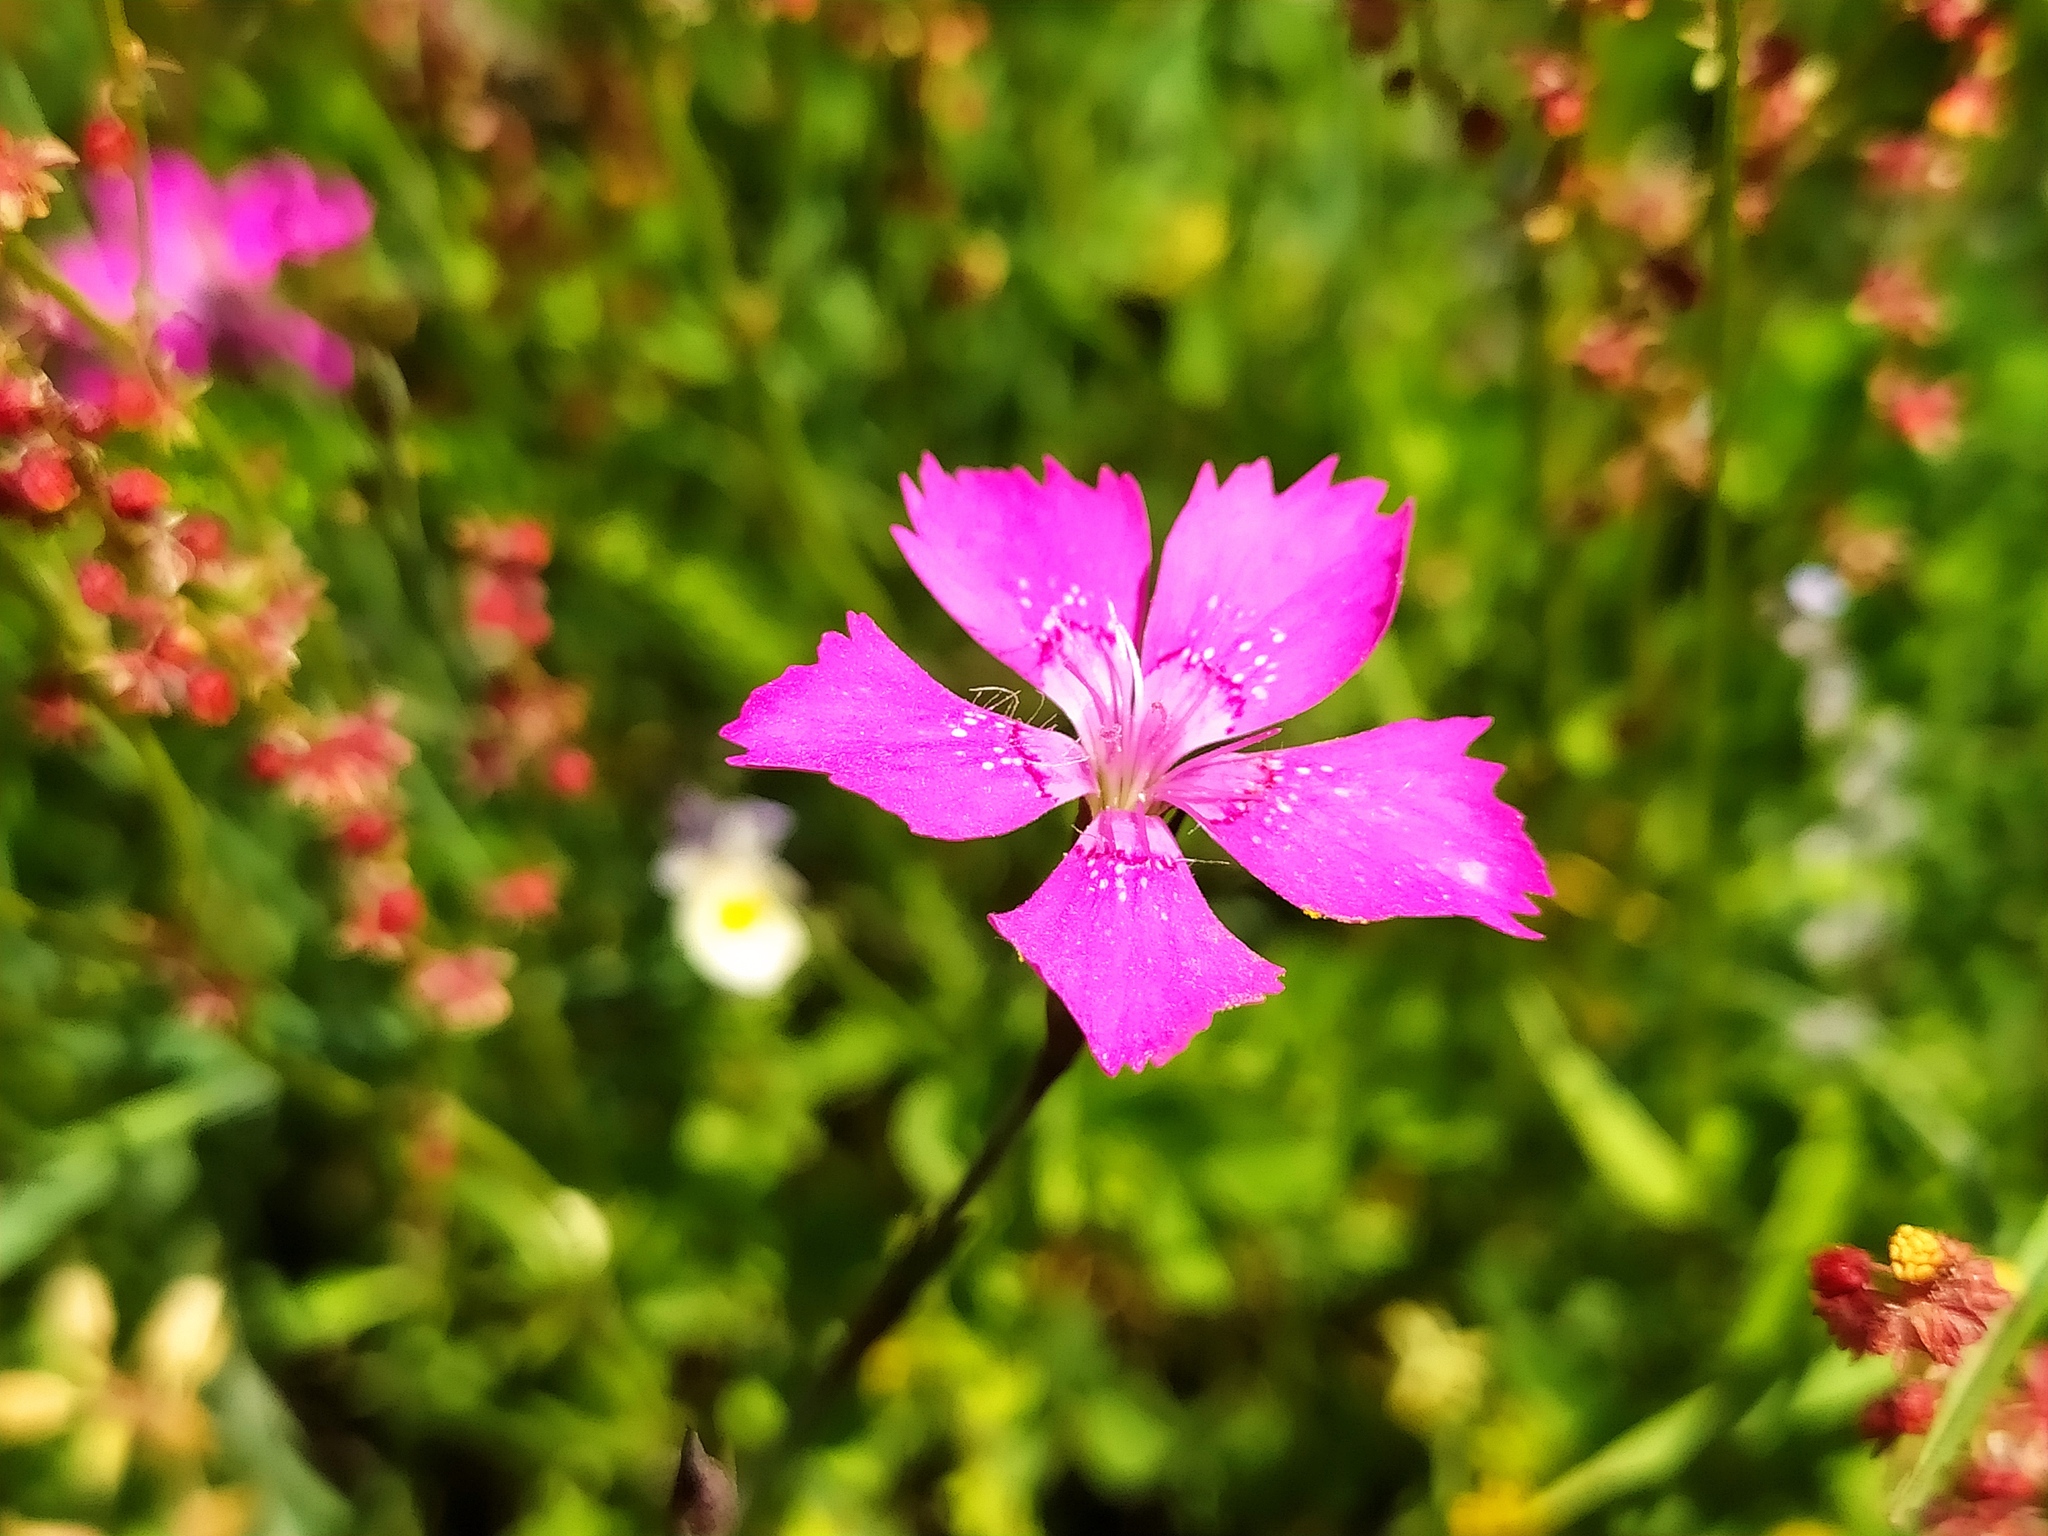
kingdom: Plantae
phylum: Tracheophyta
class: Magnoliopsida
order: Caryophyllales
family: Caryophyllaceae
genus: Dianthus
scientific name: Dianthus deltoides
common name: Maiden pink
